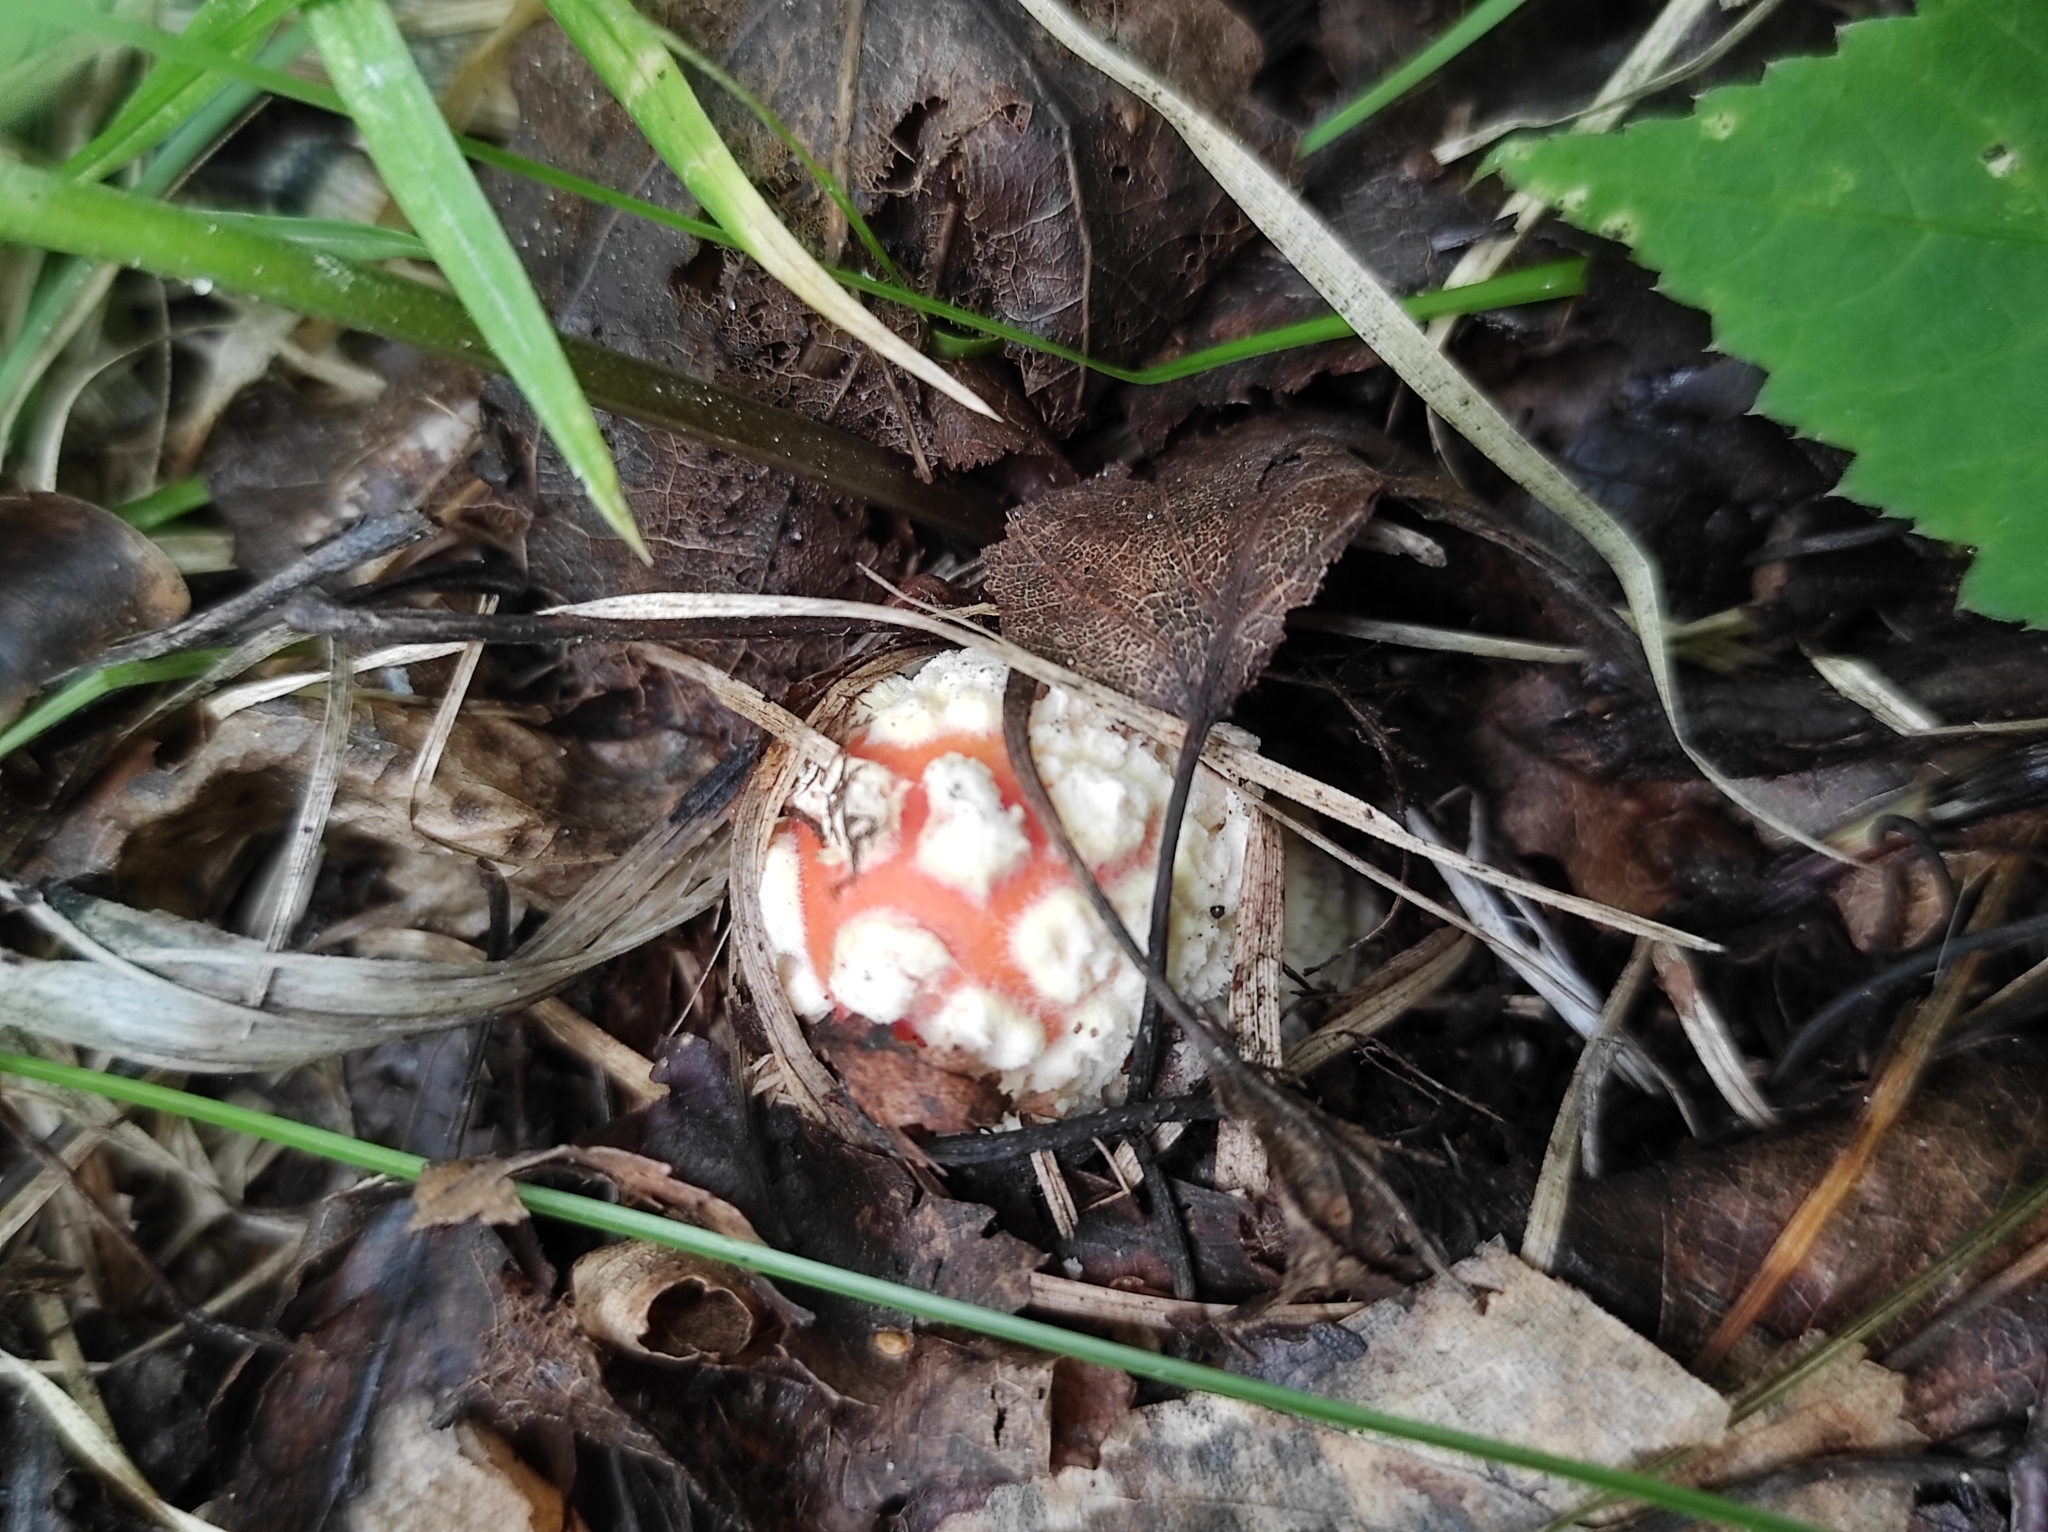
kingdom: Fungi
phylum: Basidiomycota
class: Agaricomycetes
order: Agaricales
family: Amanitaceae
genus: Amanita
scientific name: Amanita muscaria
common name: Fly agaric
